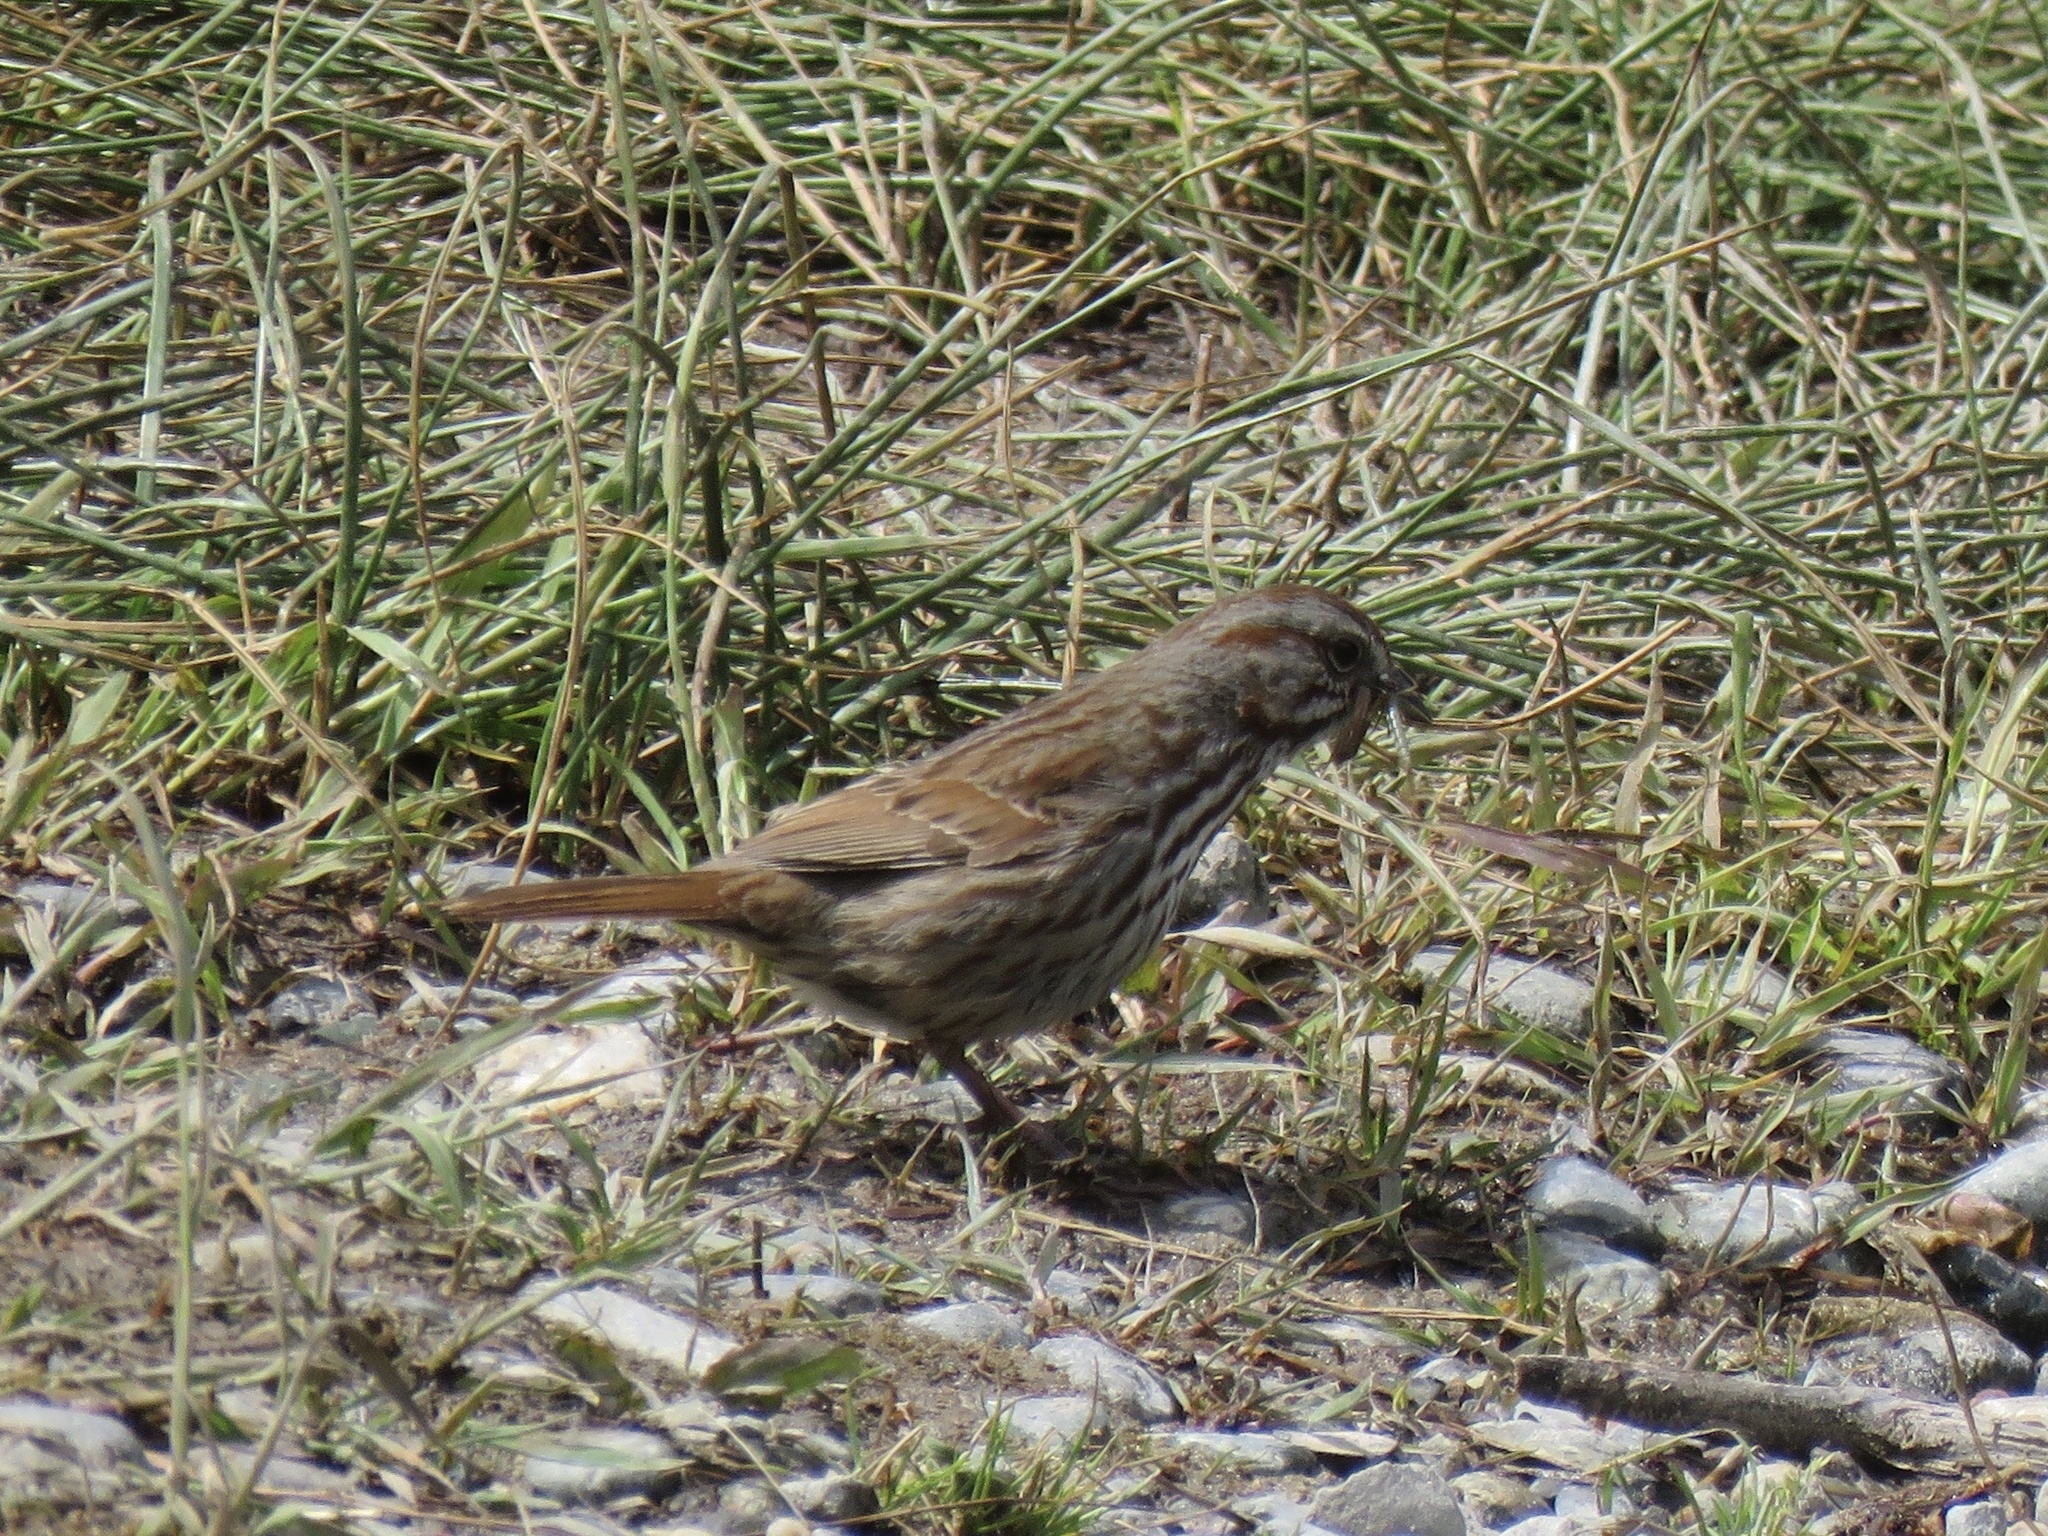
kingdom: Animalia
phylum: Chordata
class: Aves
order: Passeriformes
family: Passerellidae
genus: Melospiza
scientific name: Melospiza melodia
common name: Song sparrow
